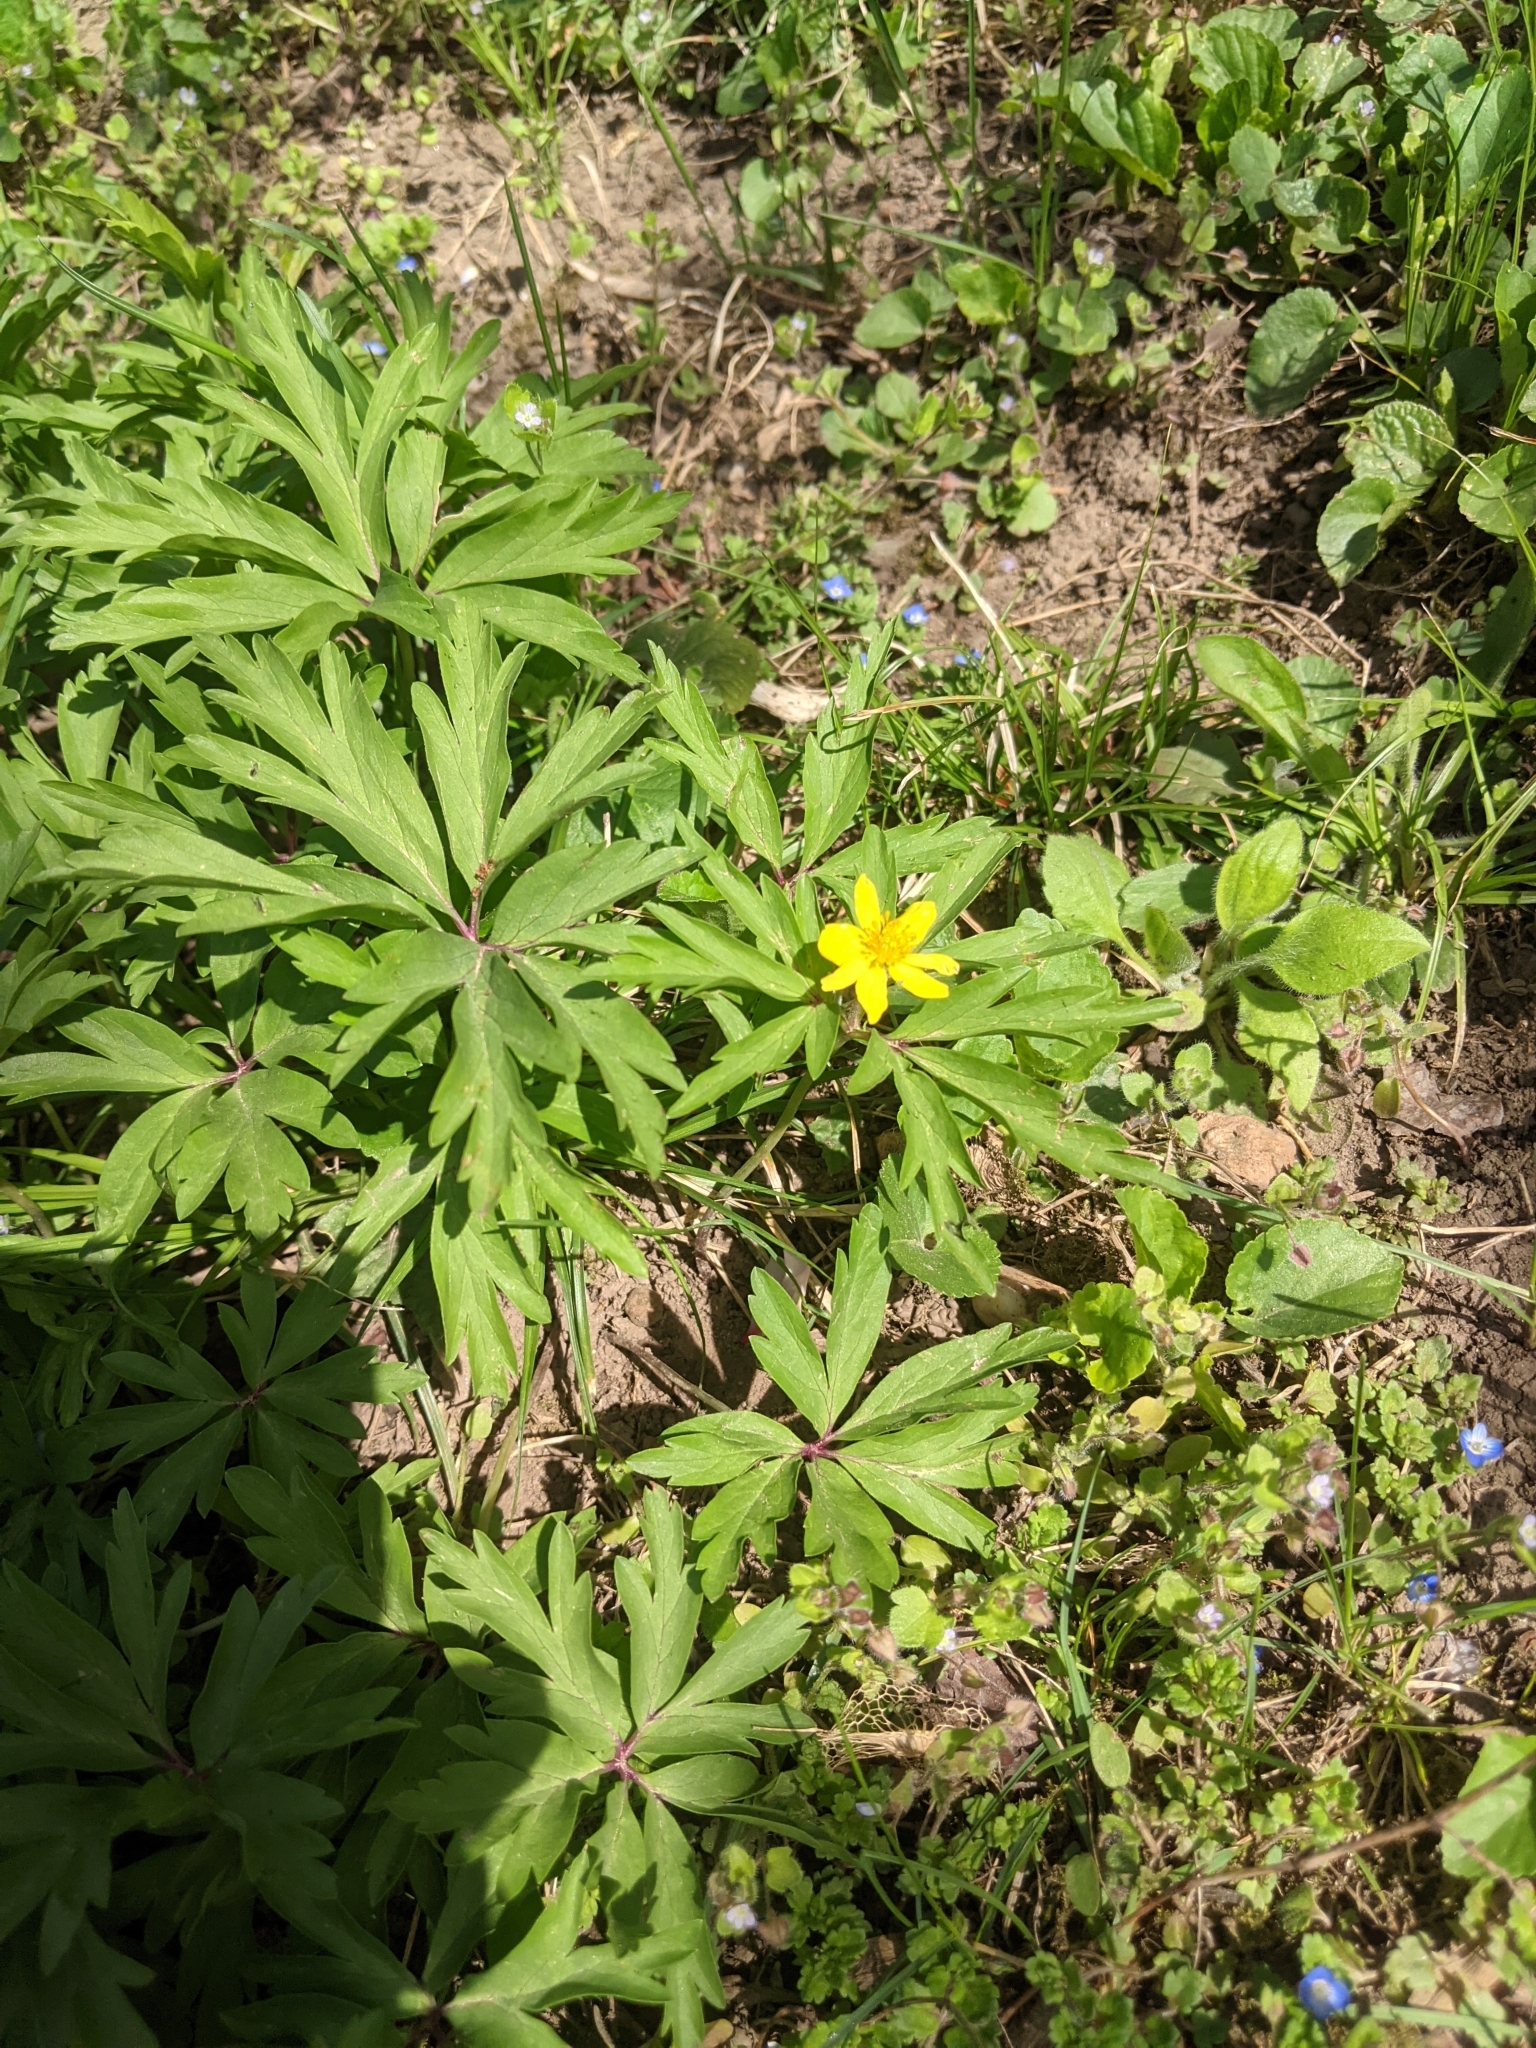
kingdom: Plantae
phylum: Tracheophyta
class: Magnoliopsida
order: Ranunculales
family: Ranunculaceae
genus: Anemone
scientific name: Anemone ranunculoides
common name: Yellow anemone
